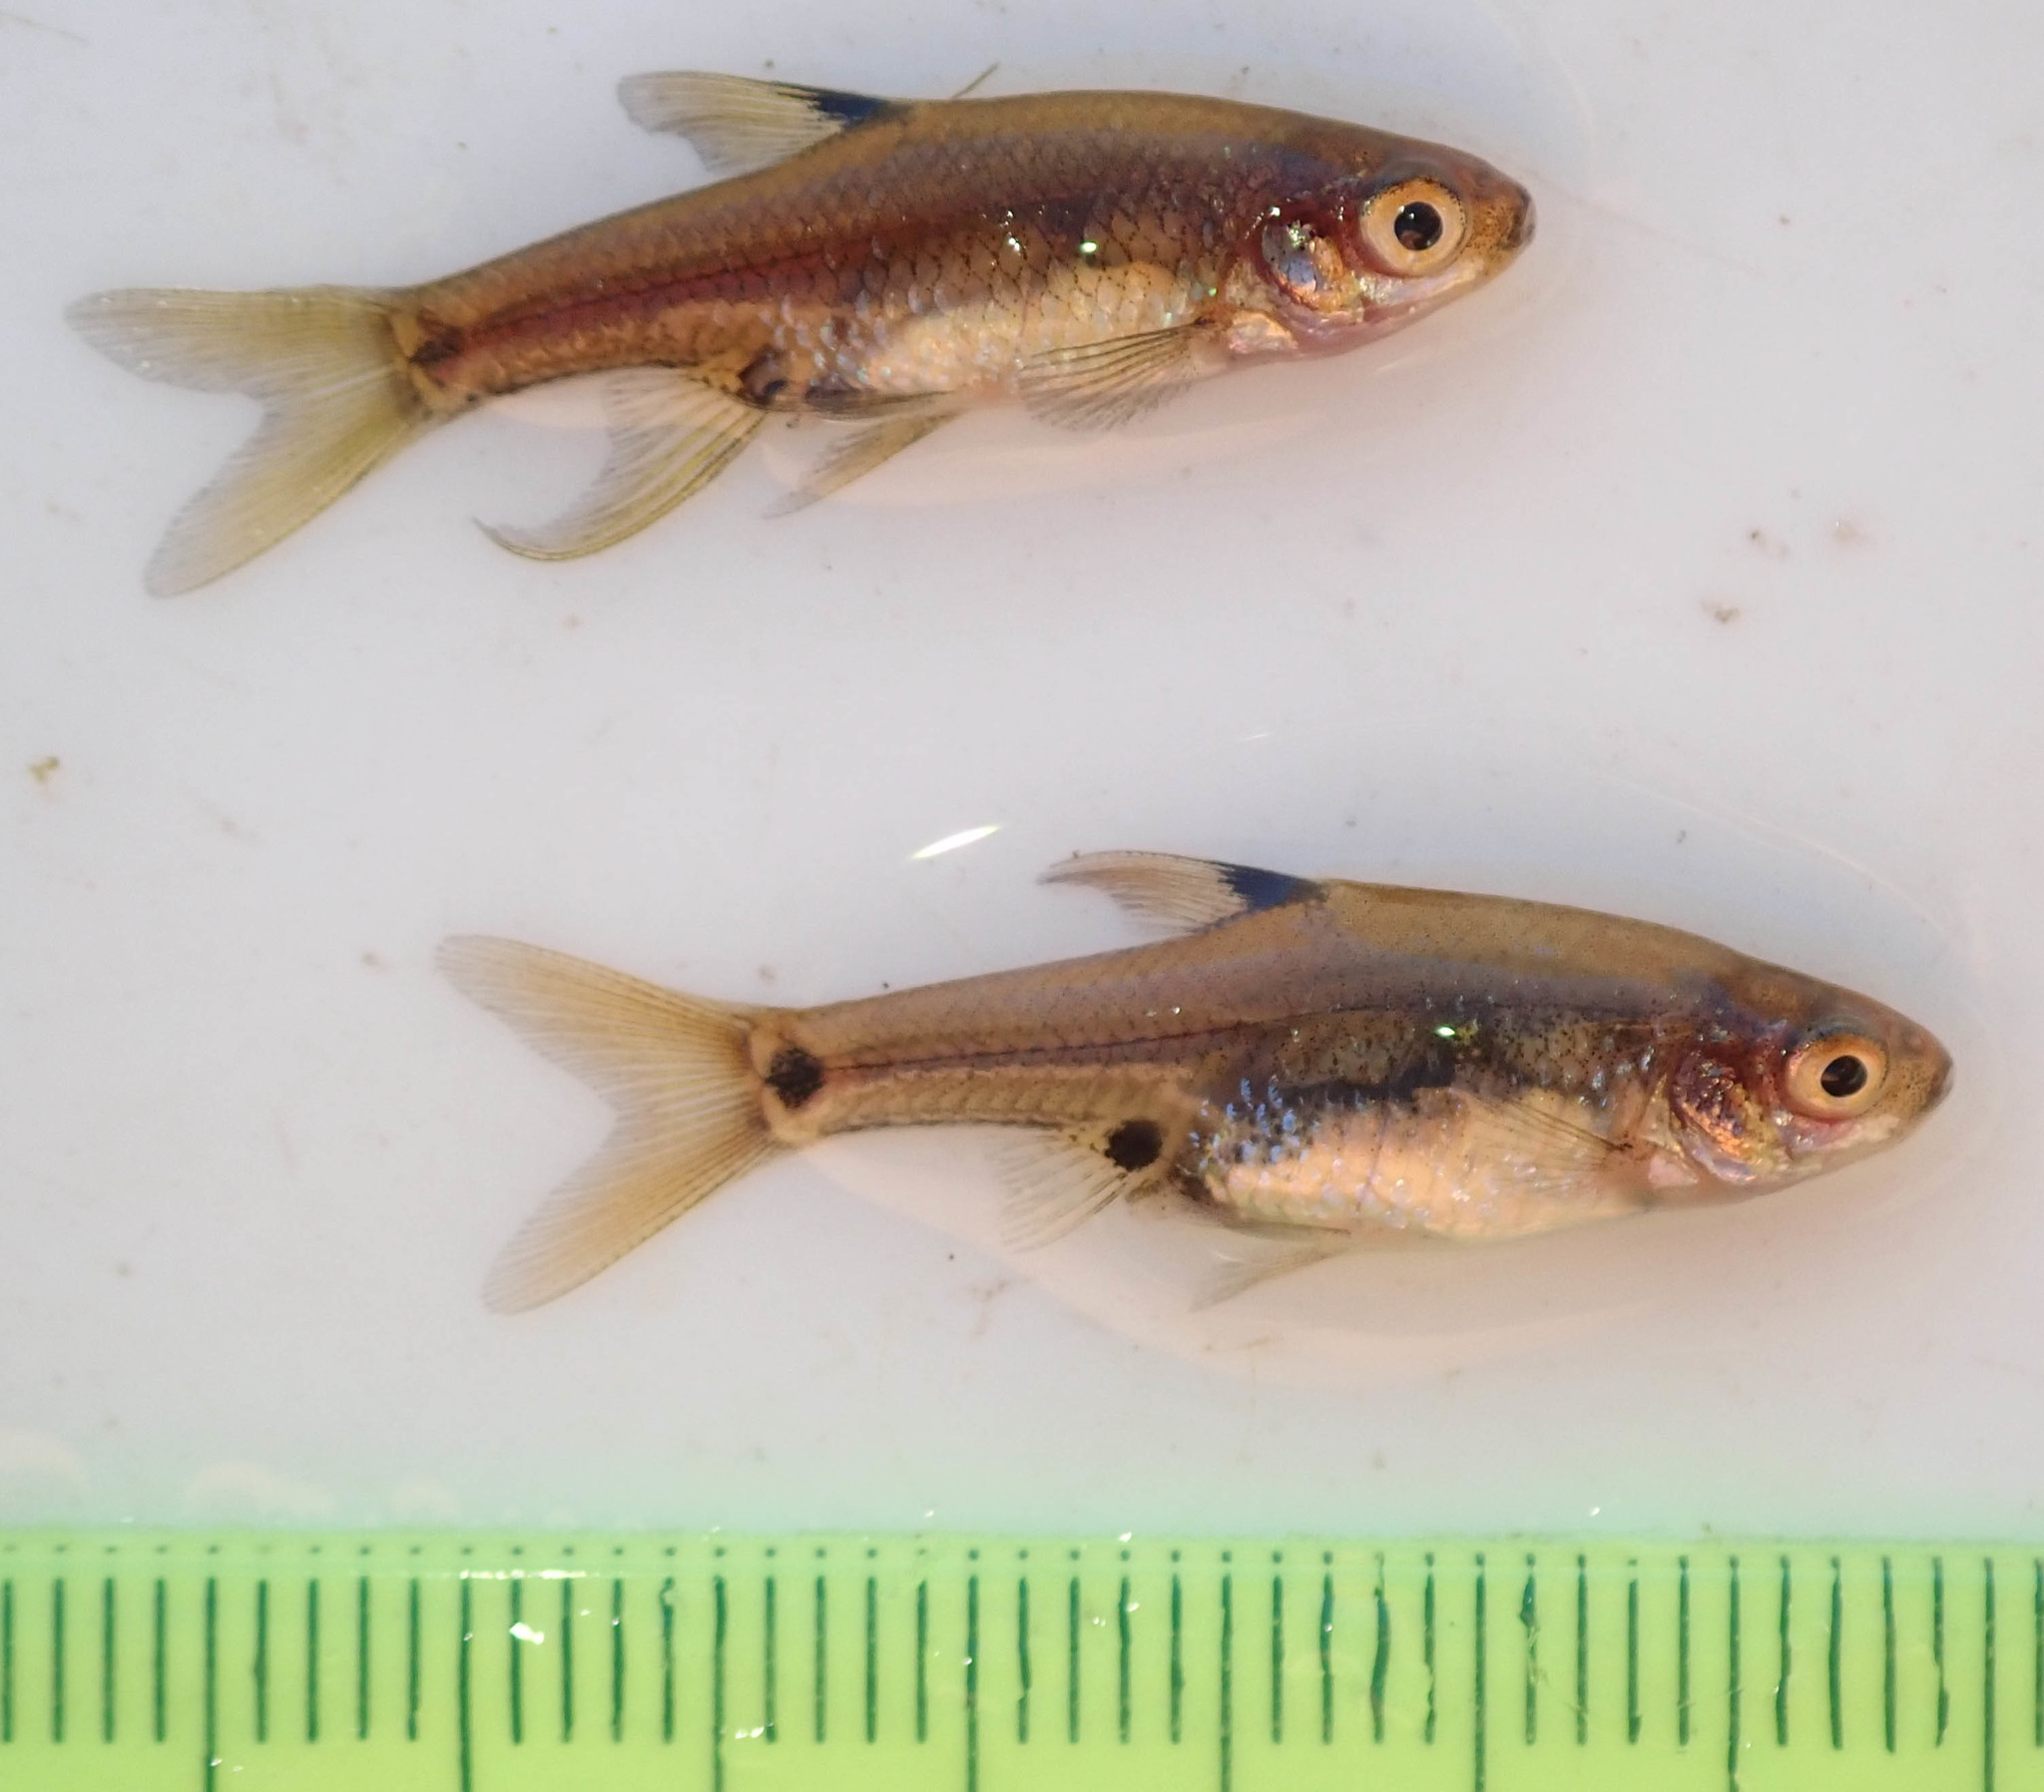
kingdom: Animalia
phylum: Chordata
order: Cypriniformes
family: Cyprinidae
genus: Enteromius
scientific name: Enteromius haasianus
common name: Sickle-fin barb
